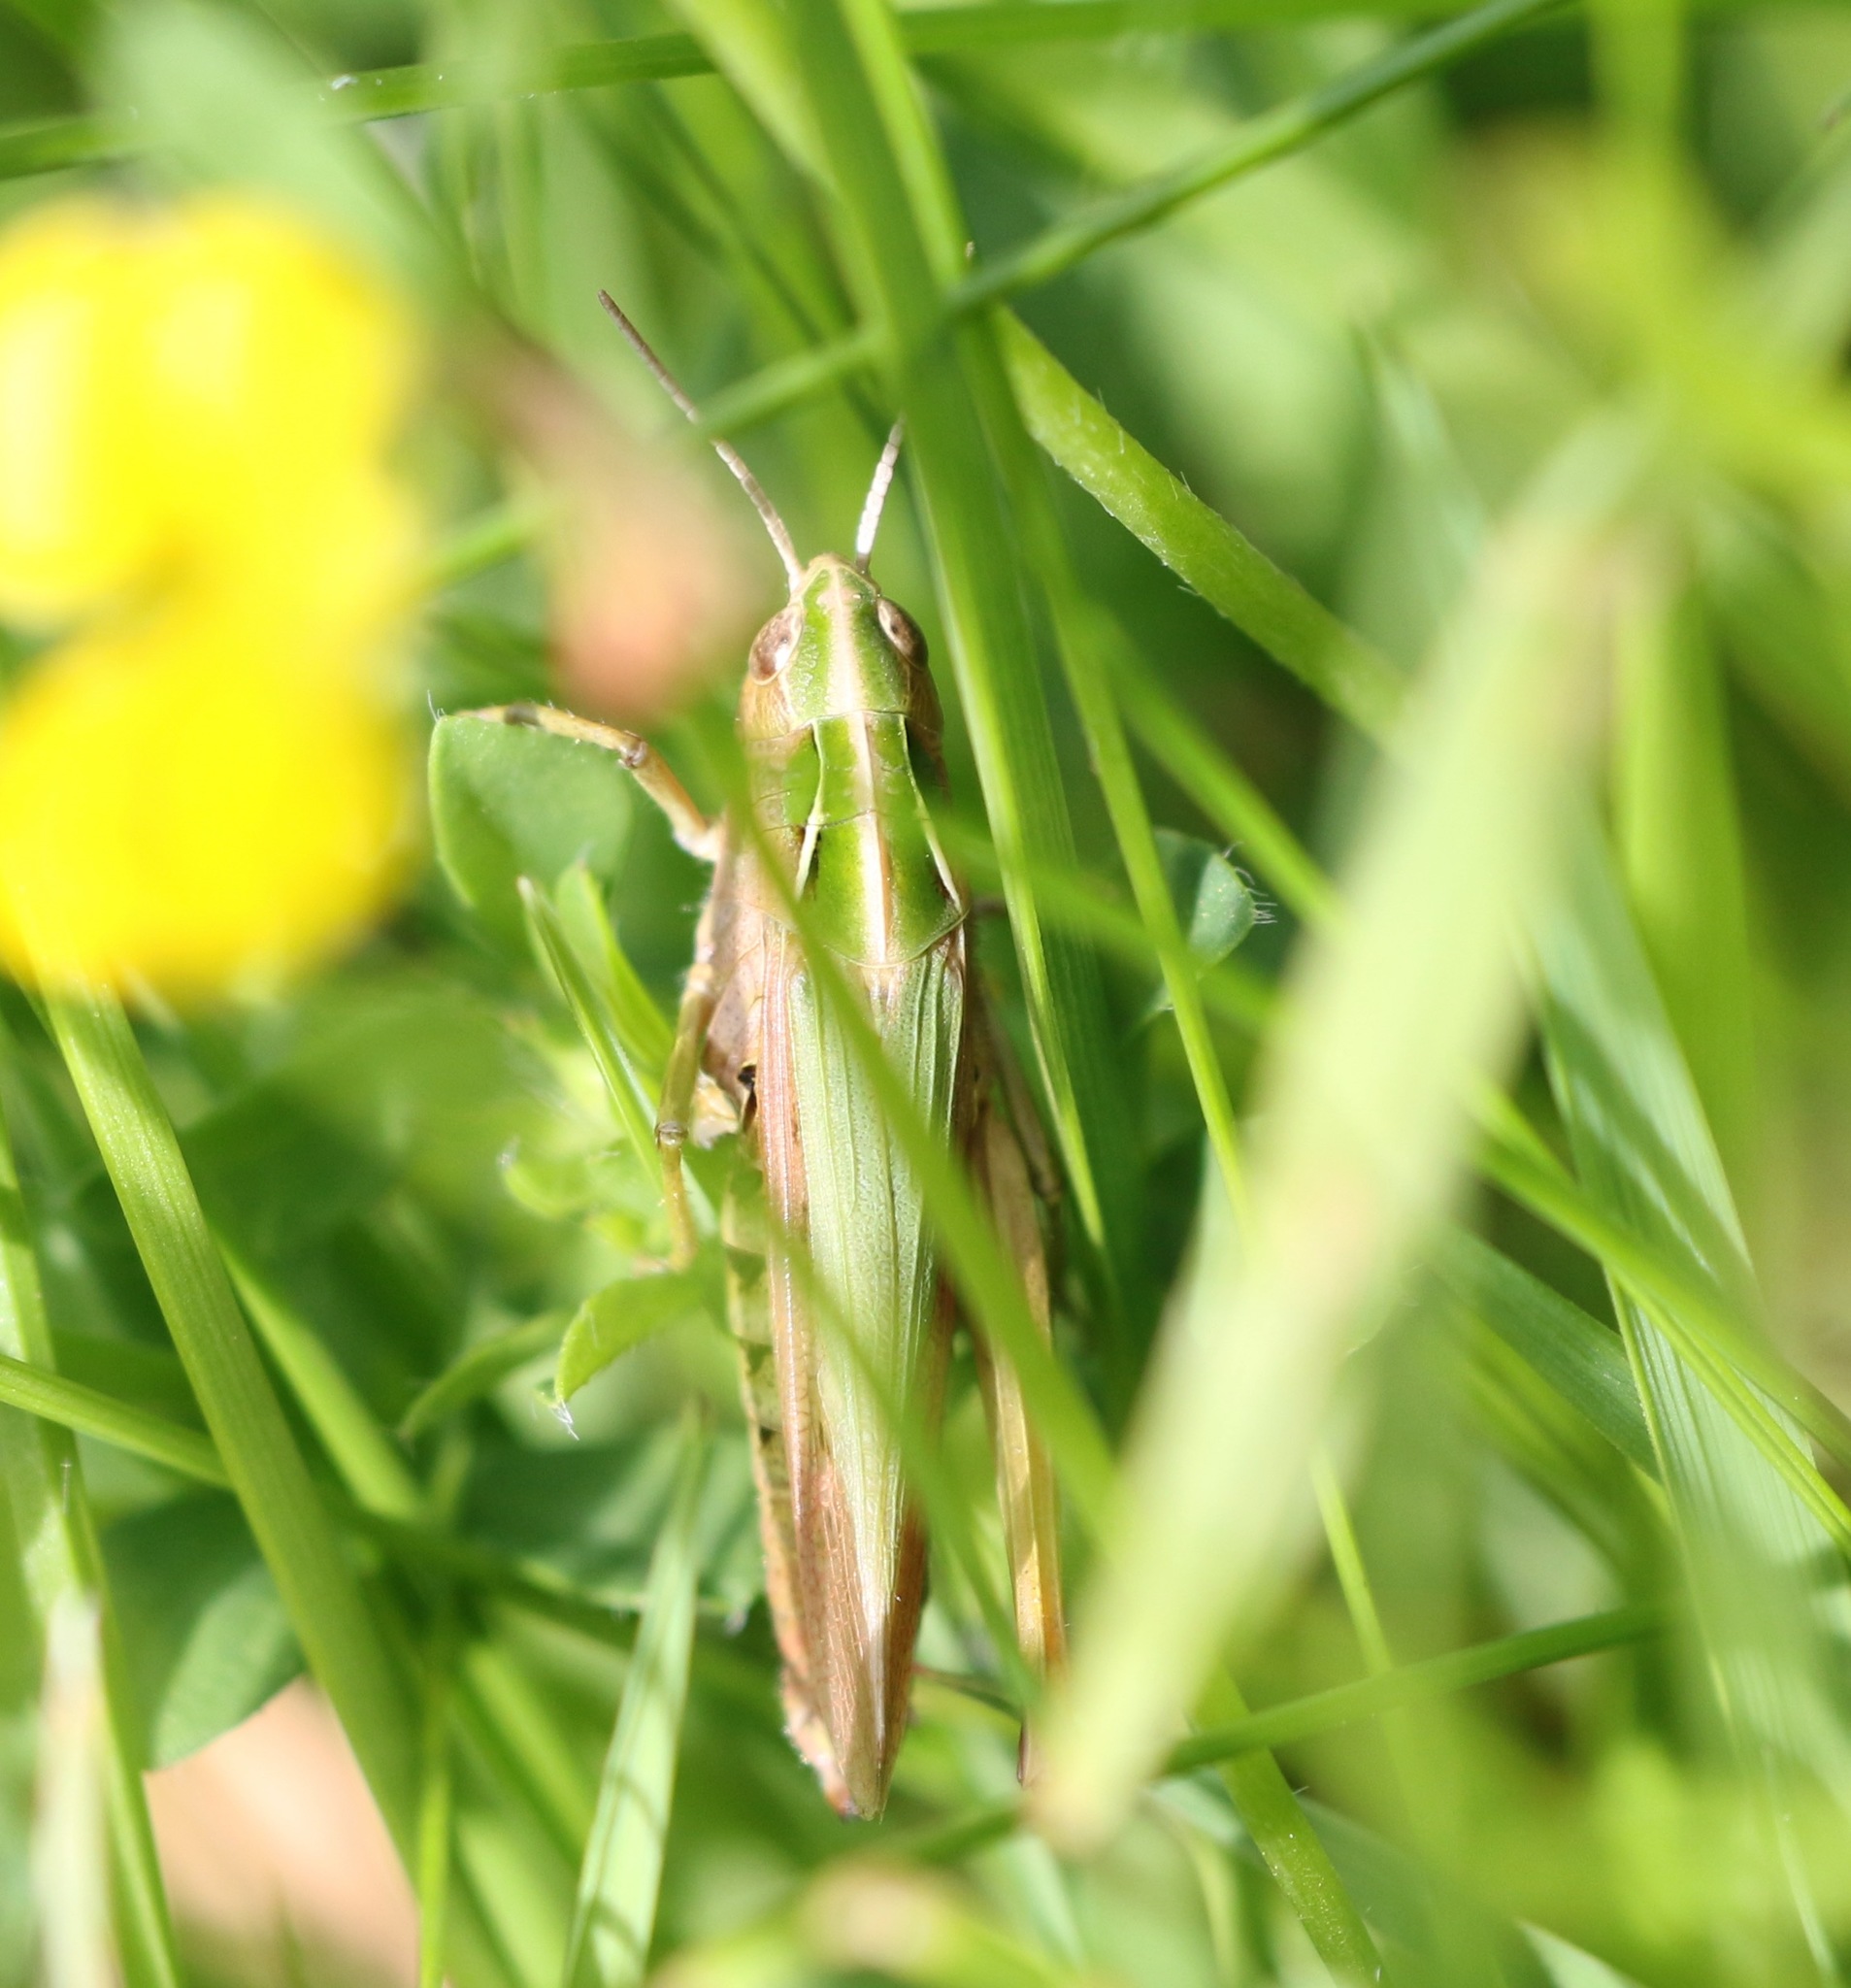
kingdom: Animalia
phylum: Arthropoda
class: Insecta
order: Orthoptera
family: Acrididae
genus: Omocestus
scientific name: Omocestus viridulus
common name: Common green grasshopper
